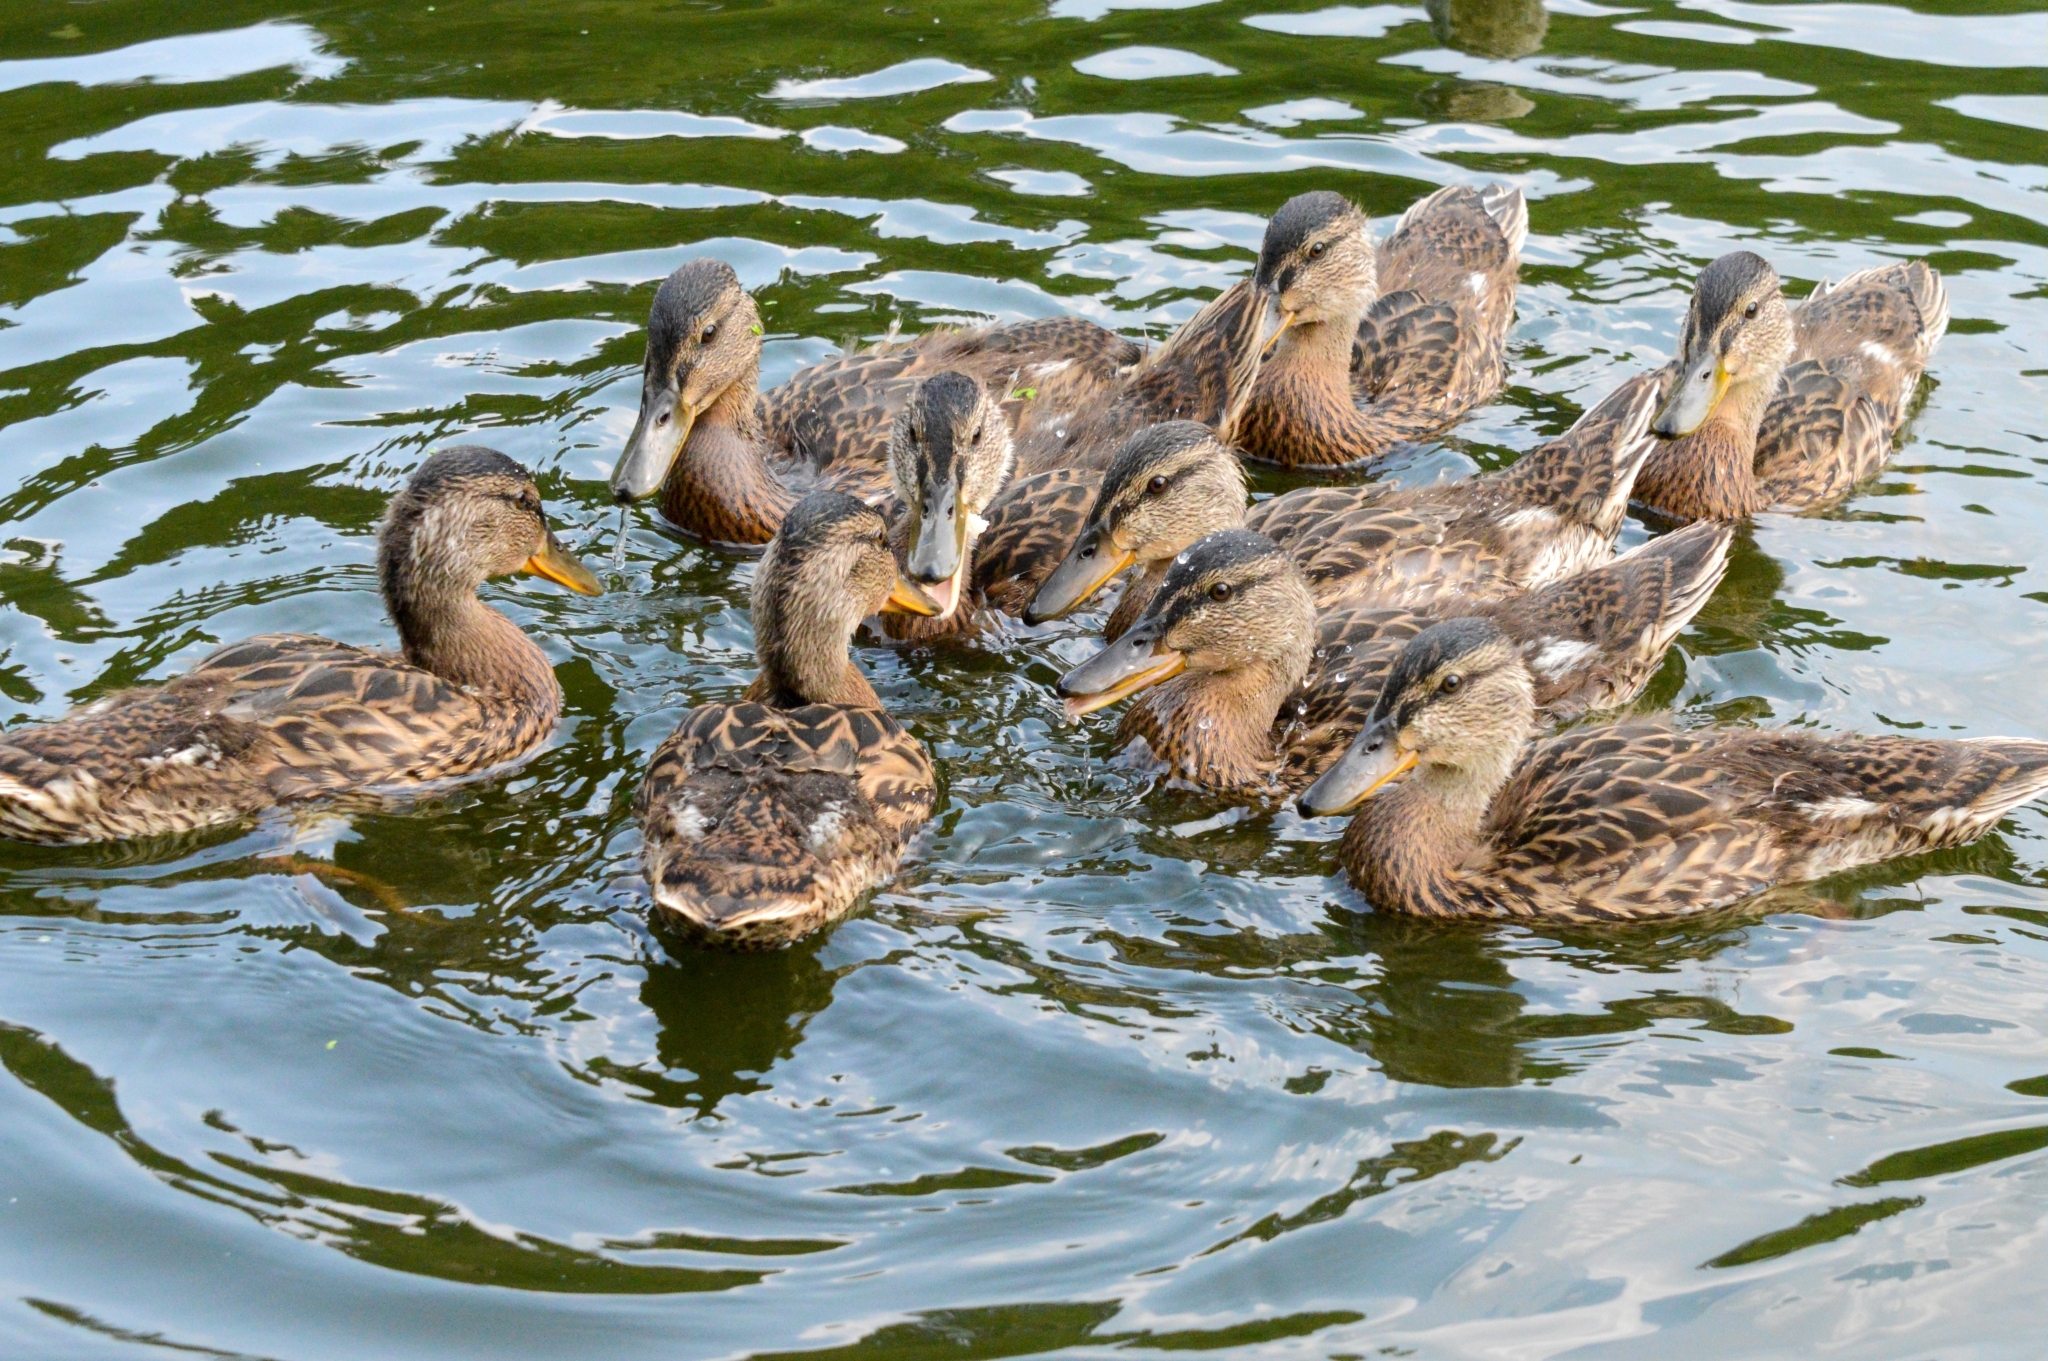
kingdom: Animalia
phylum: Chordata
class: Aves
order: Anseriformes
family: Anatidae
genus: Anas
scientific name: Anas platyrhynchos
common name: Mallard
